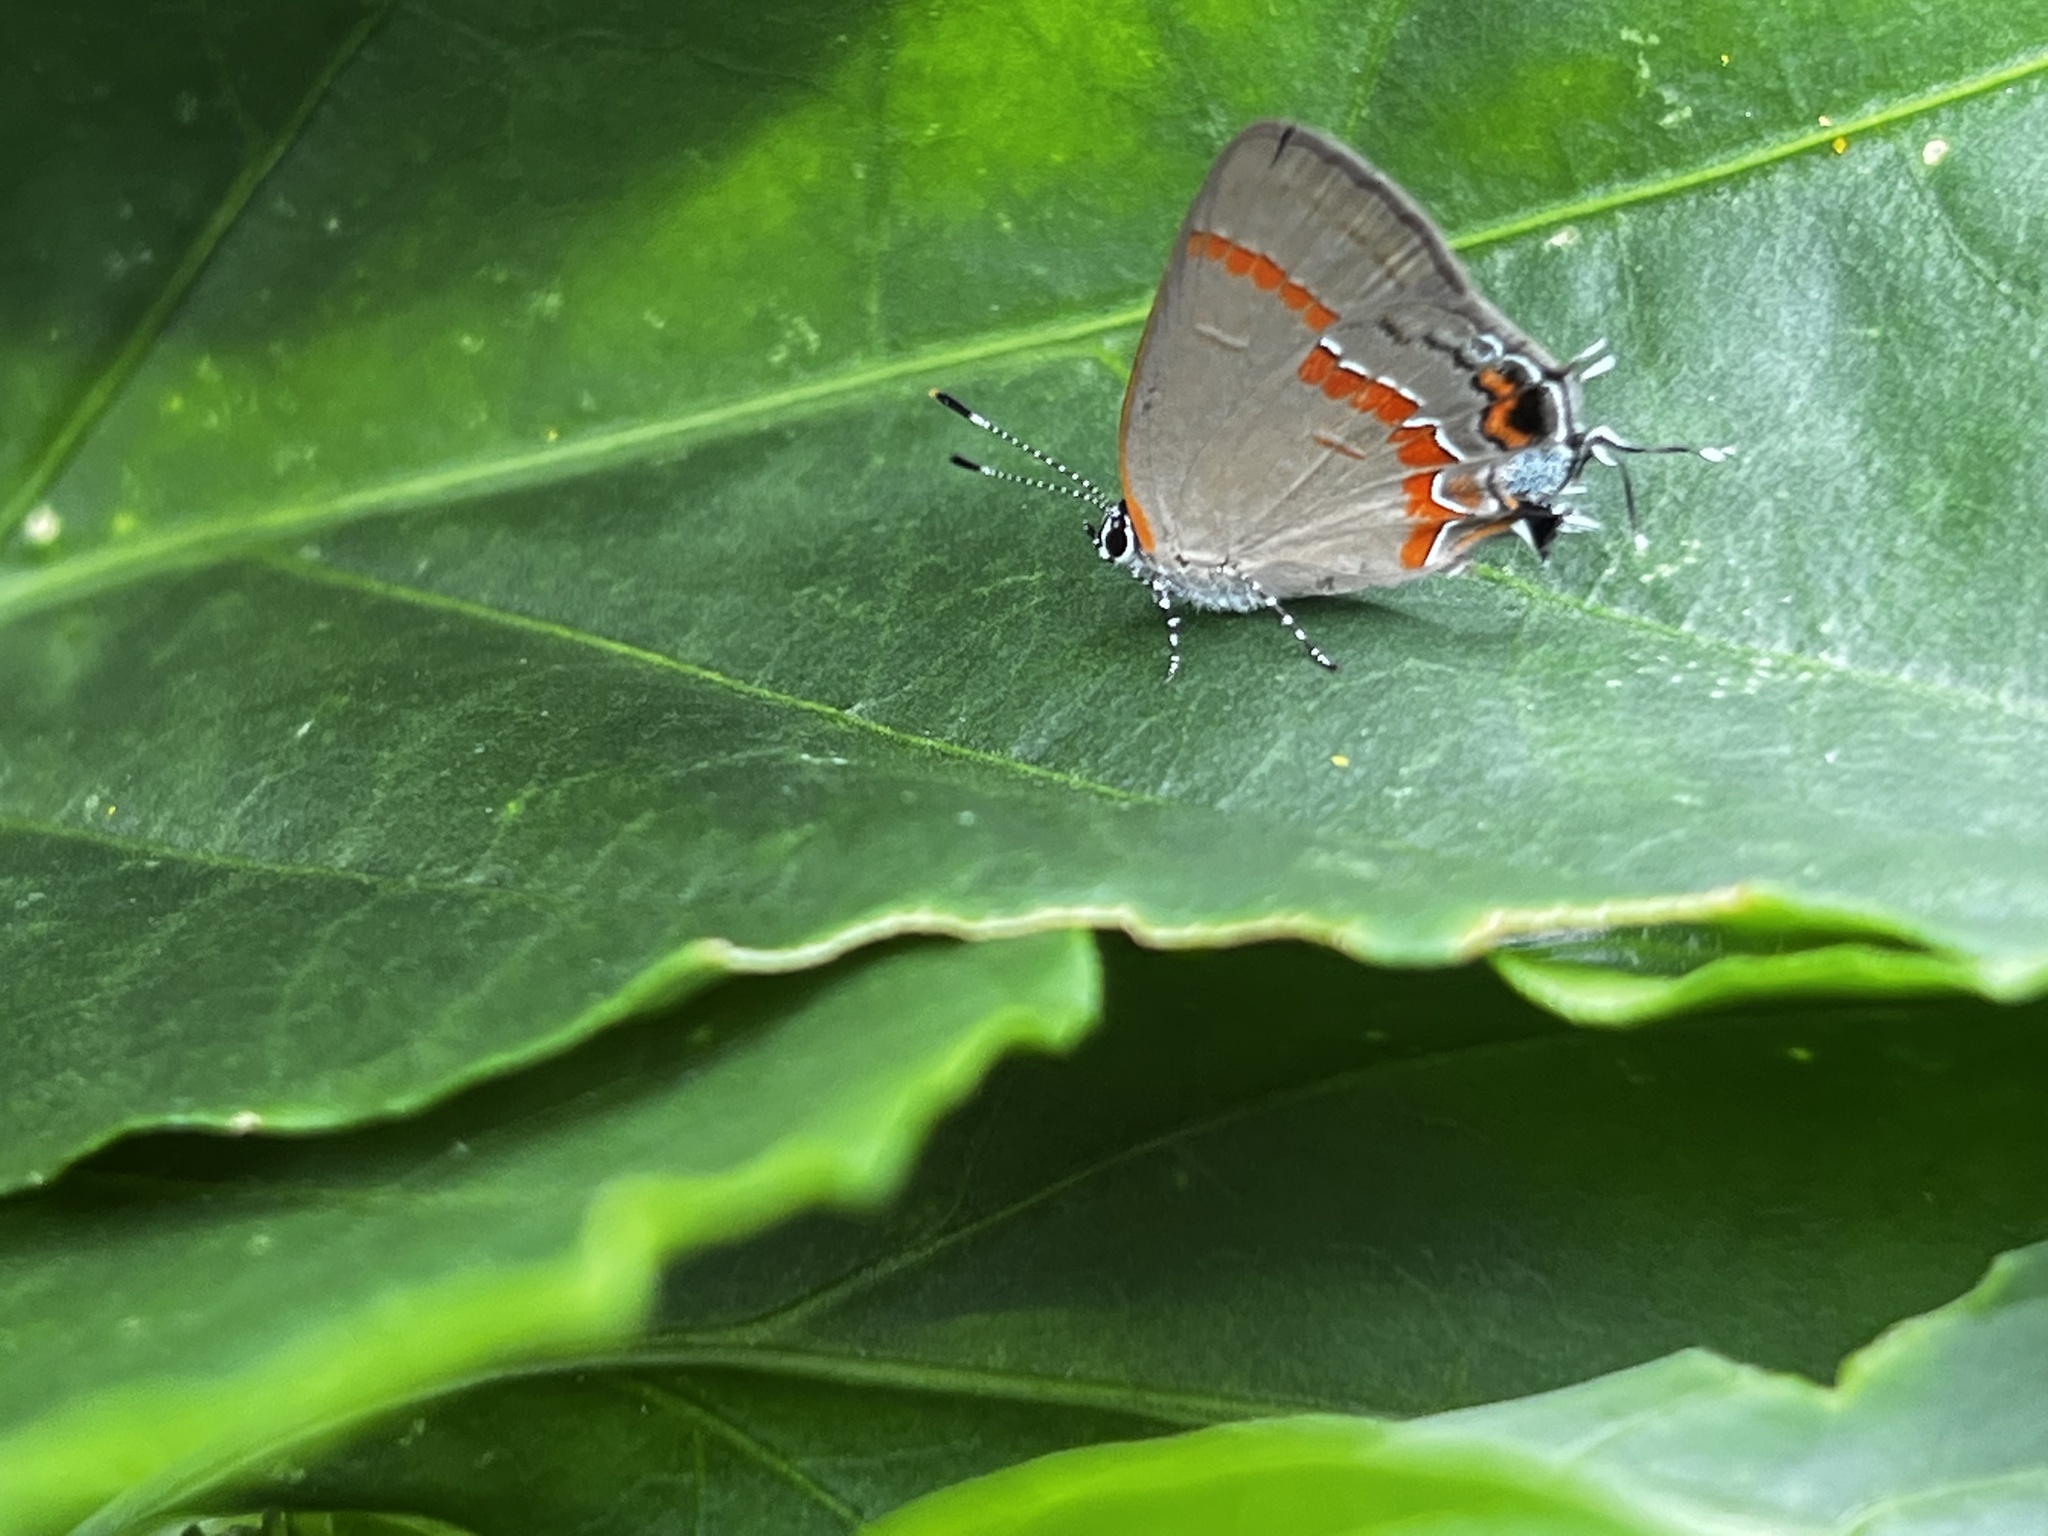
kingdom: Animalia
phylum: Arthropoda
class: Insecta
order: Lepidoptera
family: Lycaenidae
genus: Calycopis
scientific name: Calycopis cecrops
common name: Red-banded hairstreak
